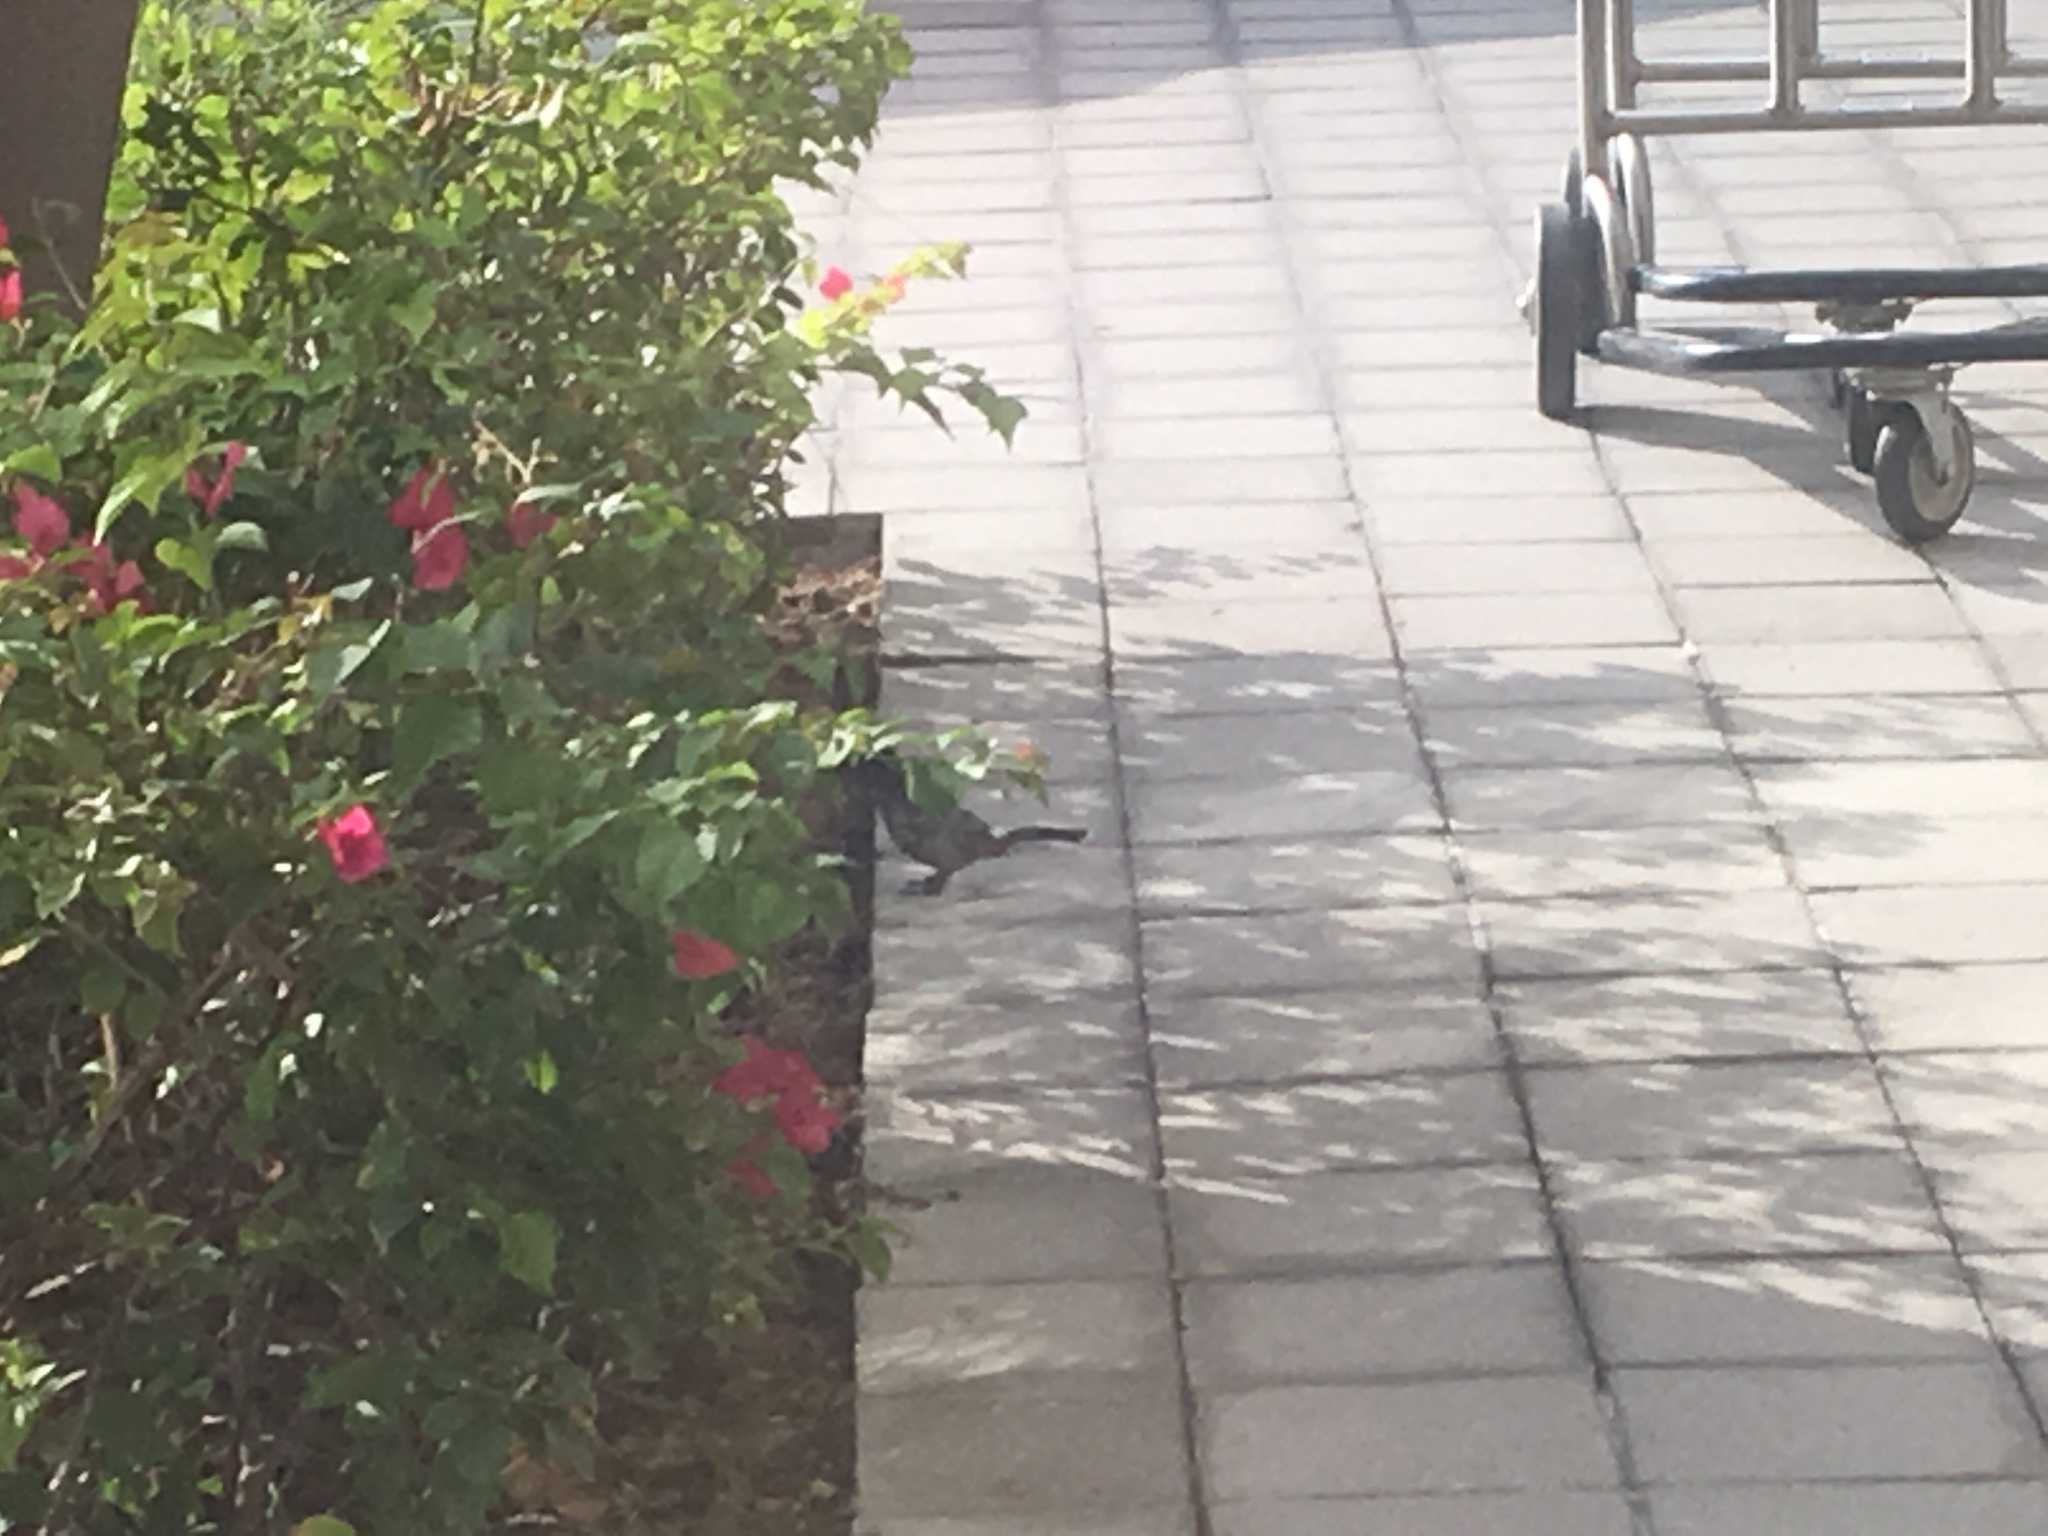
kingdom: Animalia
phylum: Chordata
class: Aves
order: Passeriformes
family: Pycnonotidae
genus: Pycnonotus
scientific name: Pycnonotus leucotis
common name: White-eared bulbul
